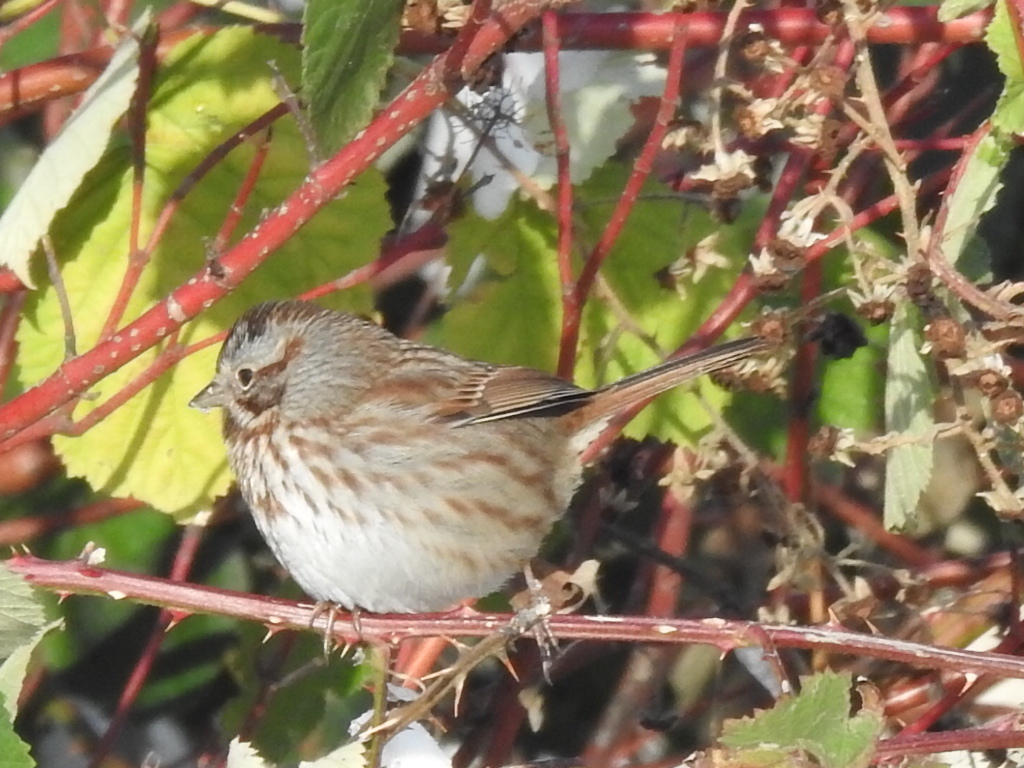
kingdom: Animalia
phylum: Chordata
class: Aves
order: Passeriformes
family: Passerellidae
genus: Melospiza
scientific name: Melospiza melodia
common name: Song sparrow
